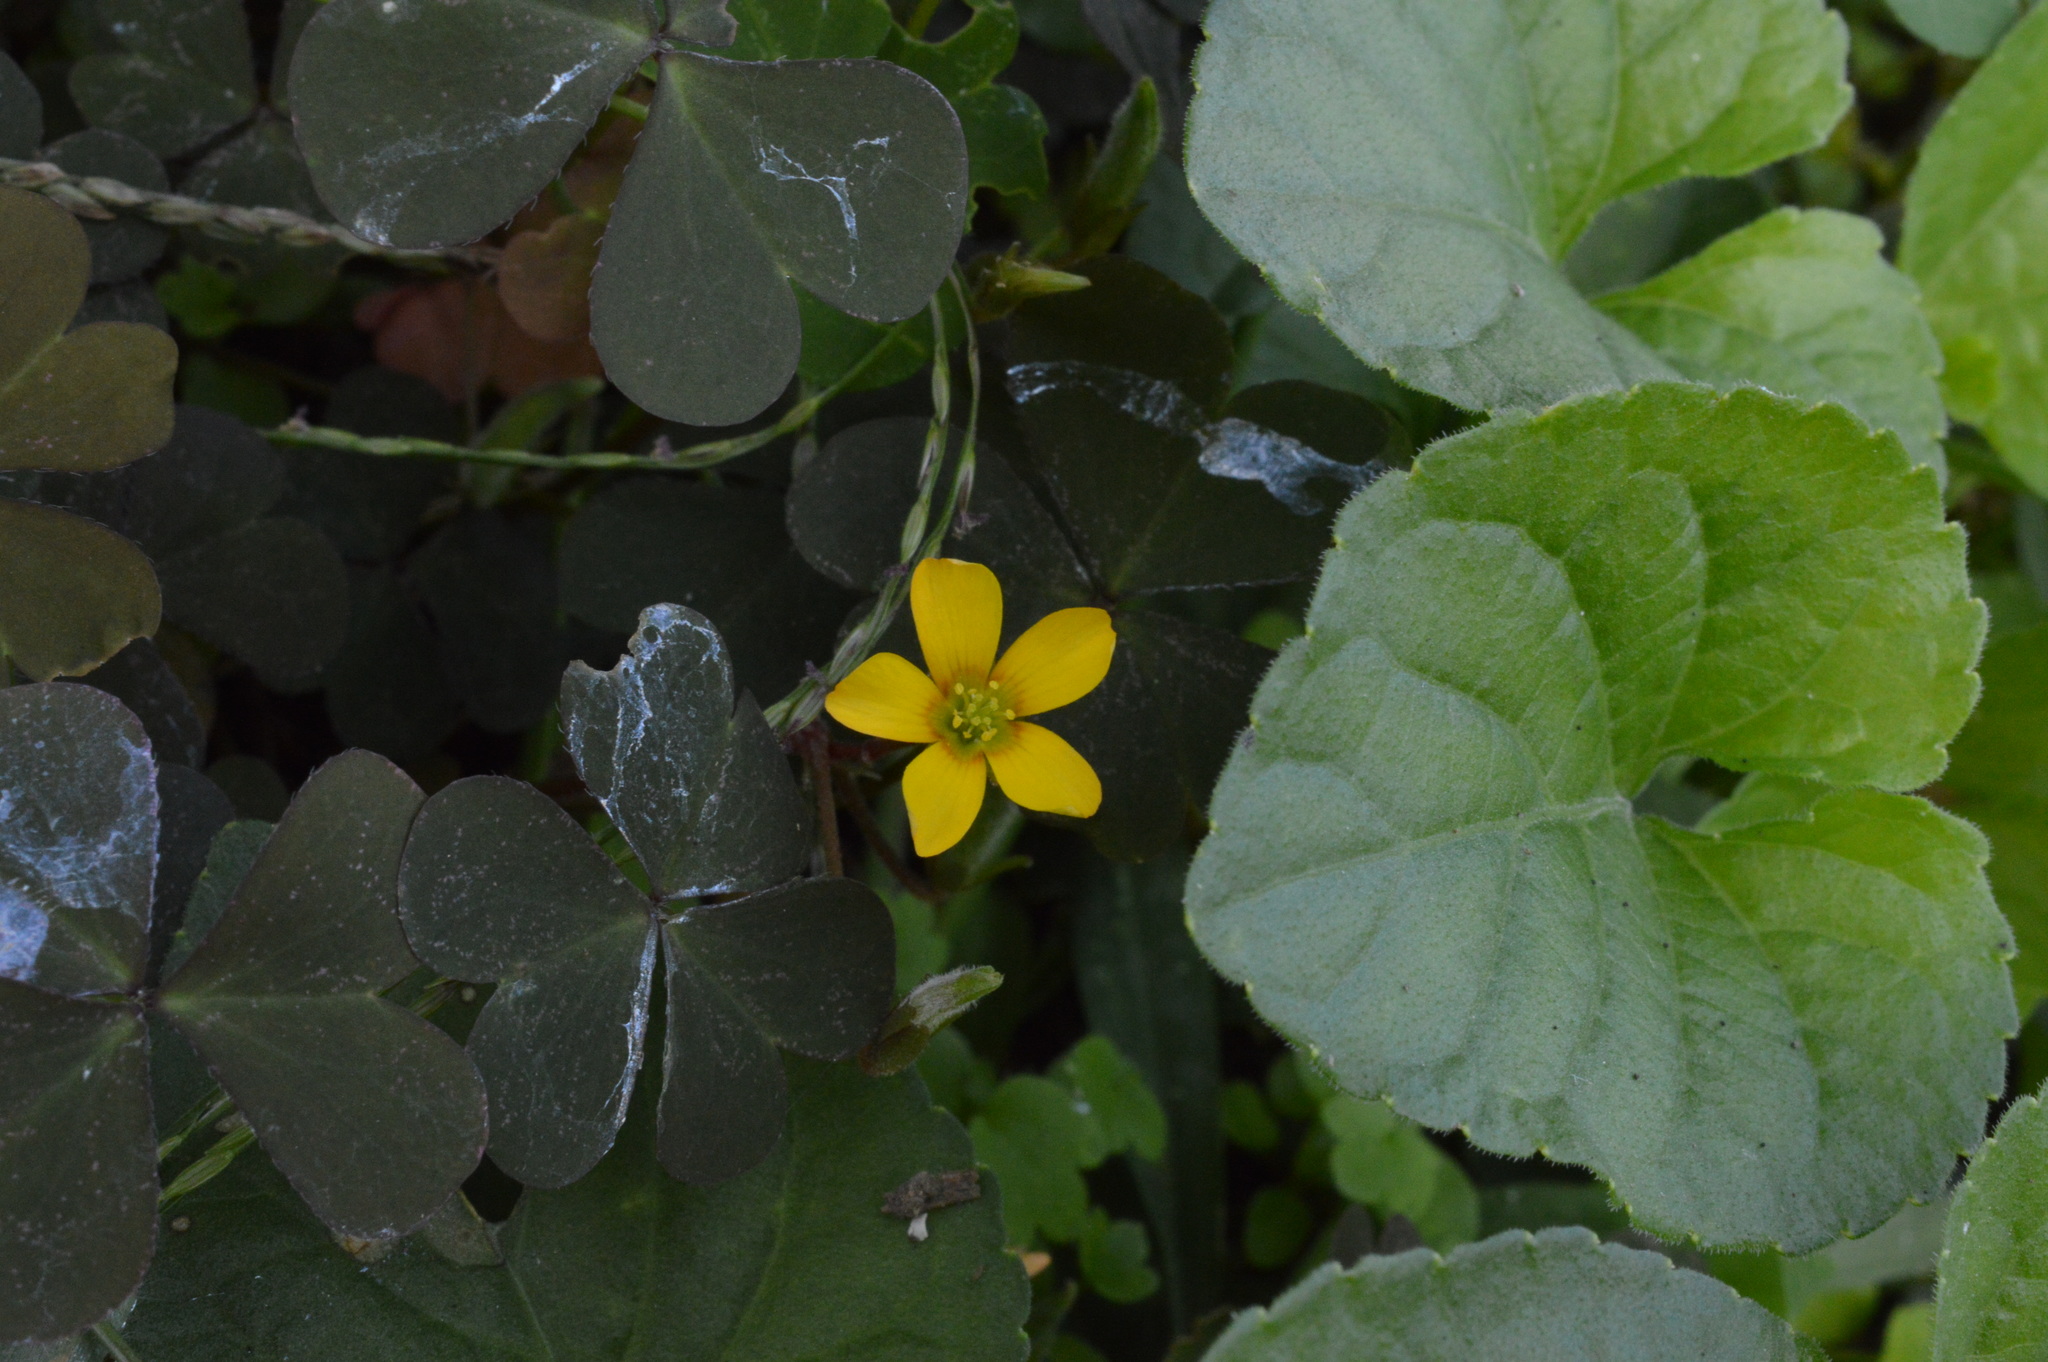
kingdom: Plantae
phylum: Tracheophyta
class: Magnoliopsida
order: Oxalidales
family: Oxalidaceae
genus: Oxalis
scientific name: Oxalis corniculata
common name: Procumbent yellow-sorrel
